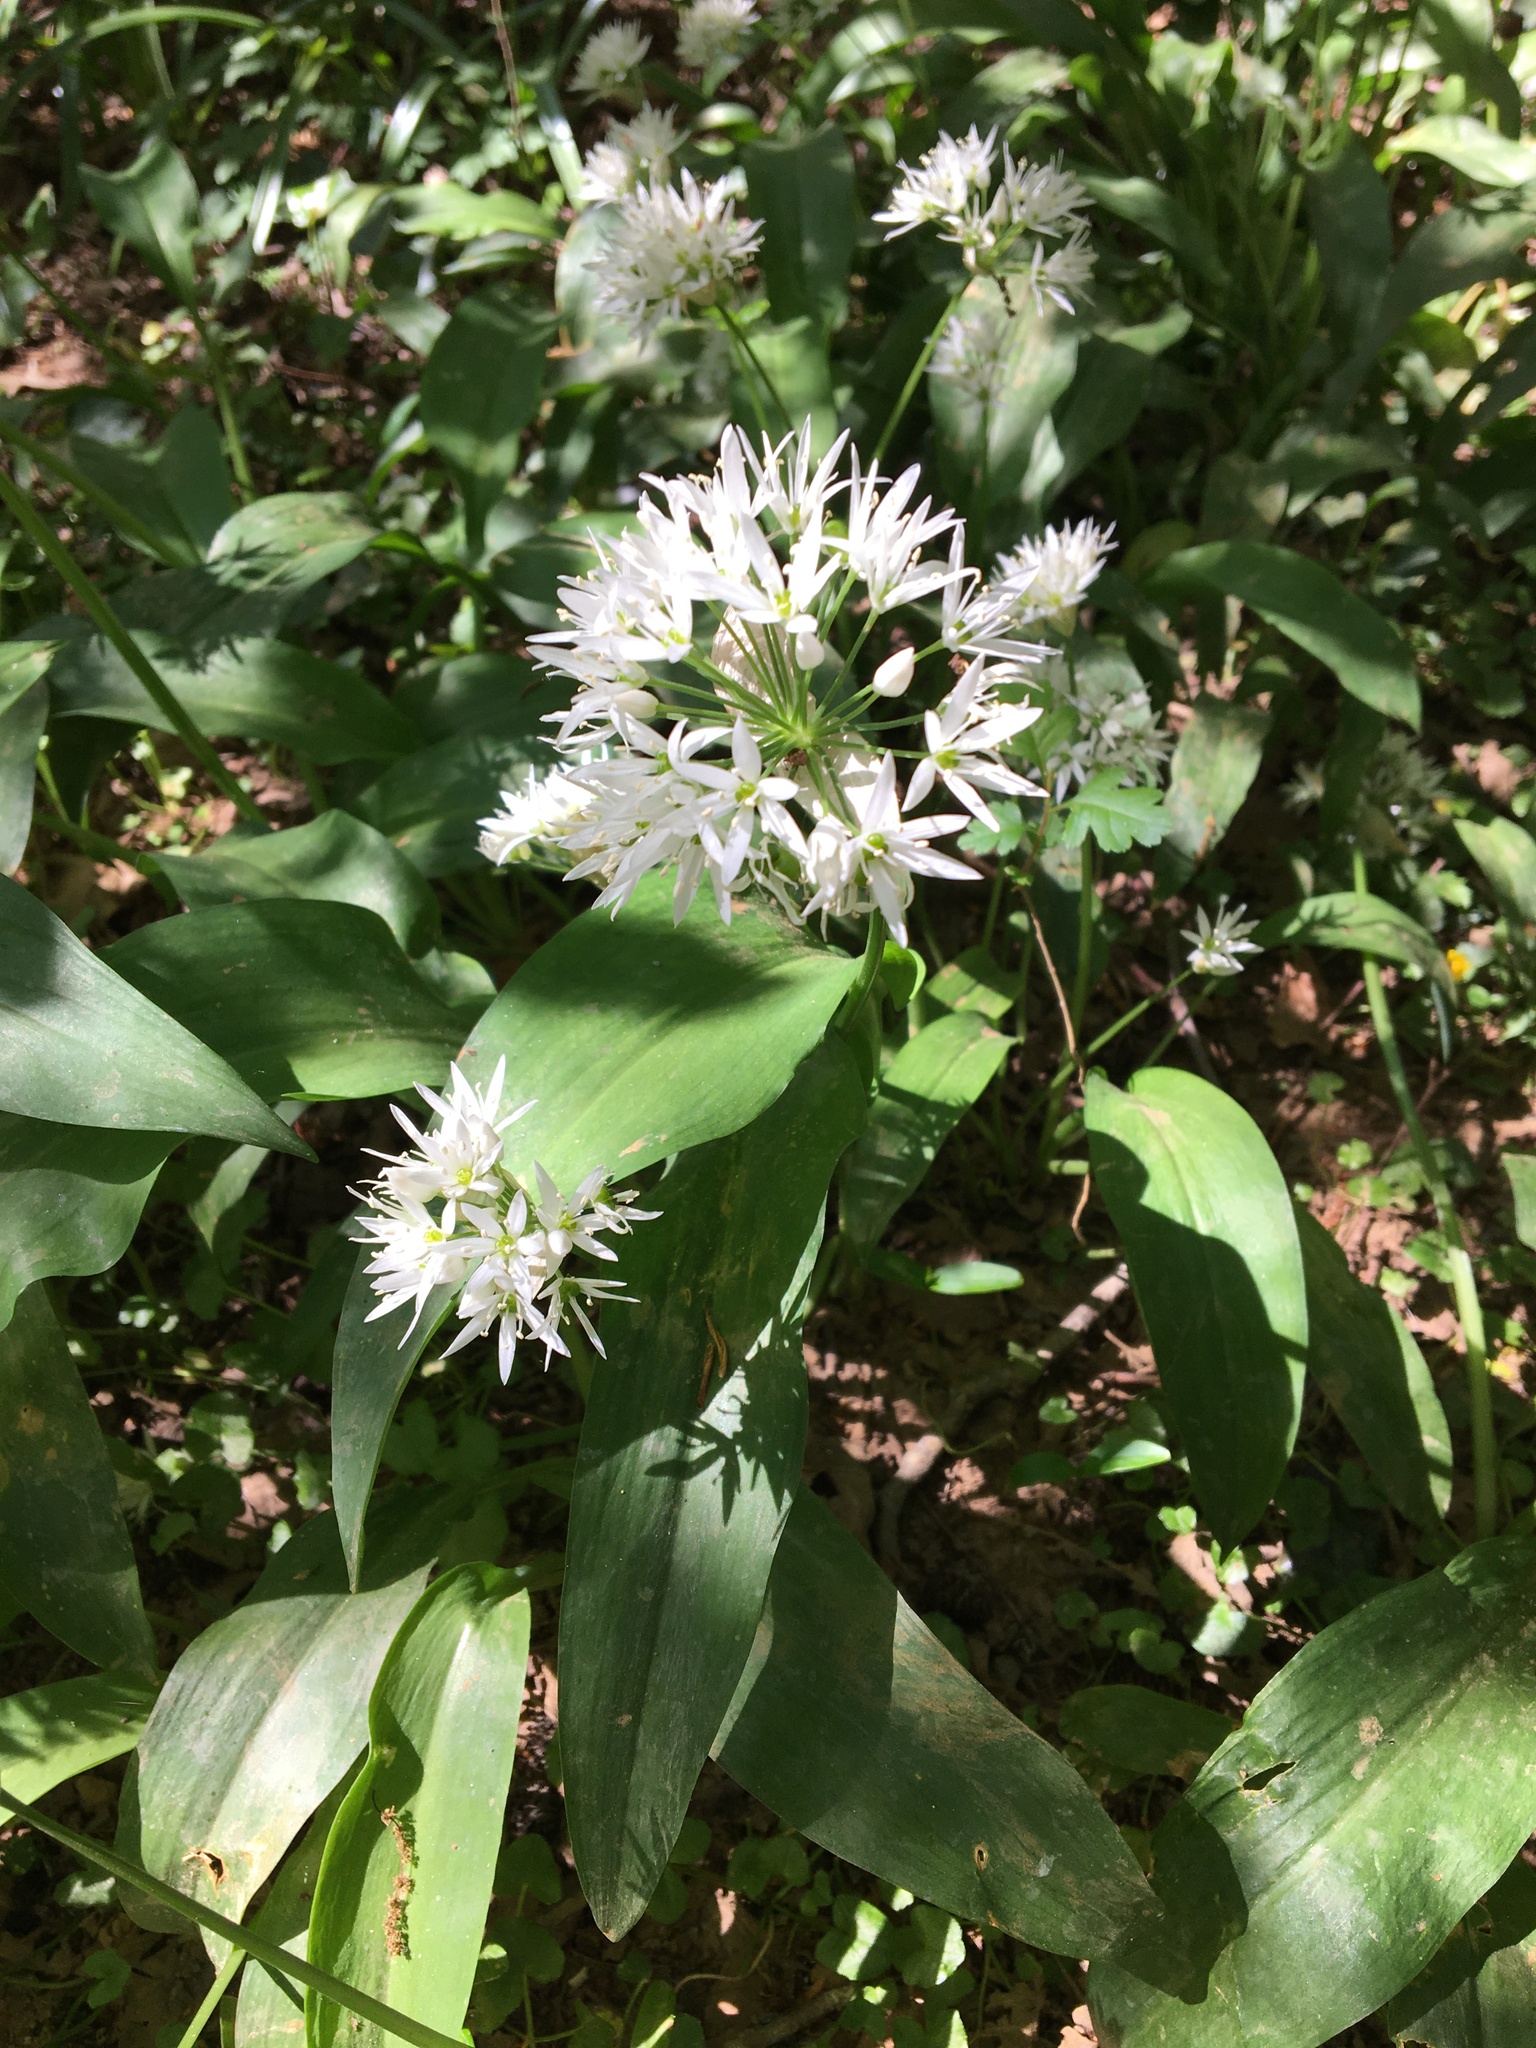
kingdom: Plantae
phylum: Tracheophyta
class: Liliopsida
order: Asparagales
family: Amaryllidaceae
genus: Allium
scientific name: Allium ursinum
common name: Ramsons
